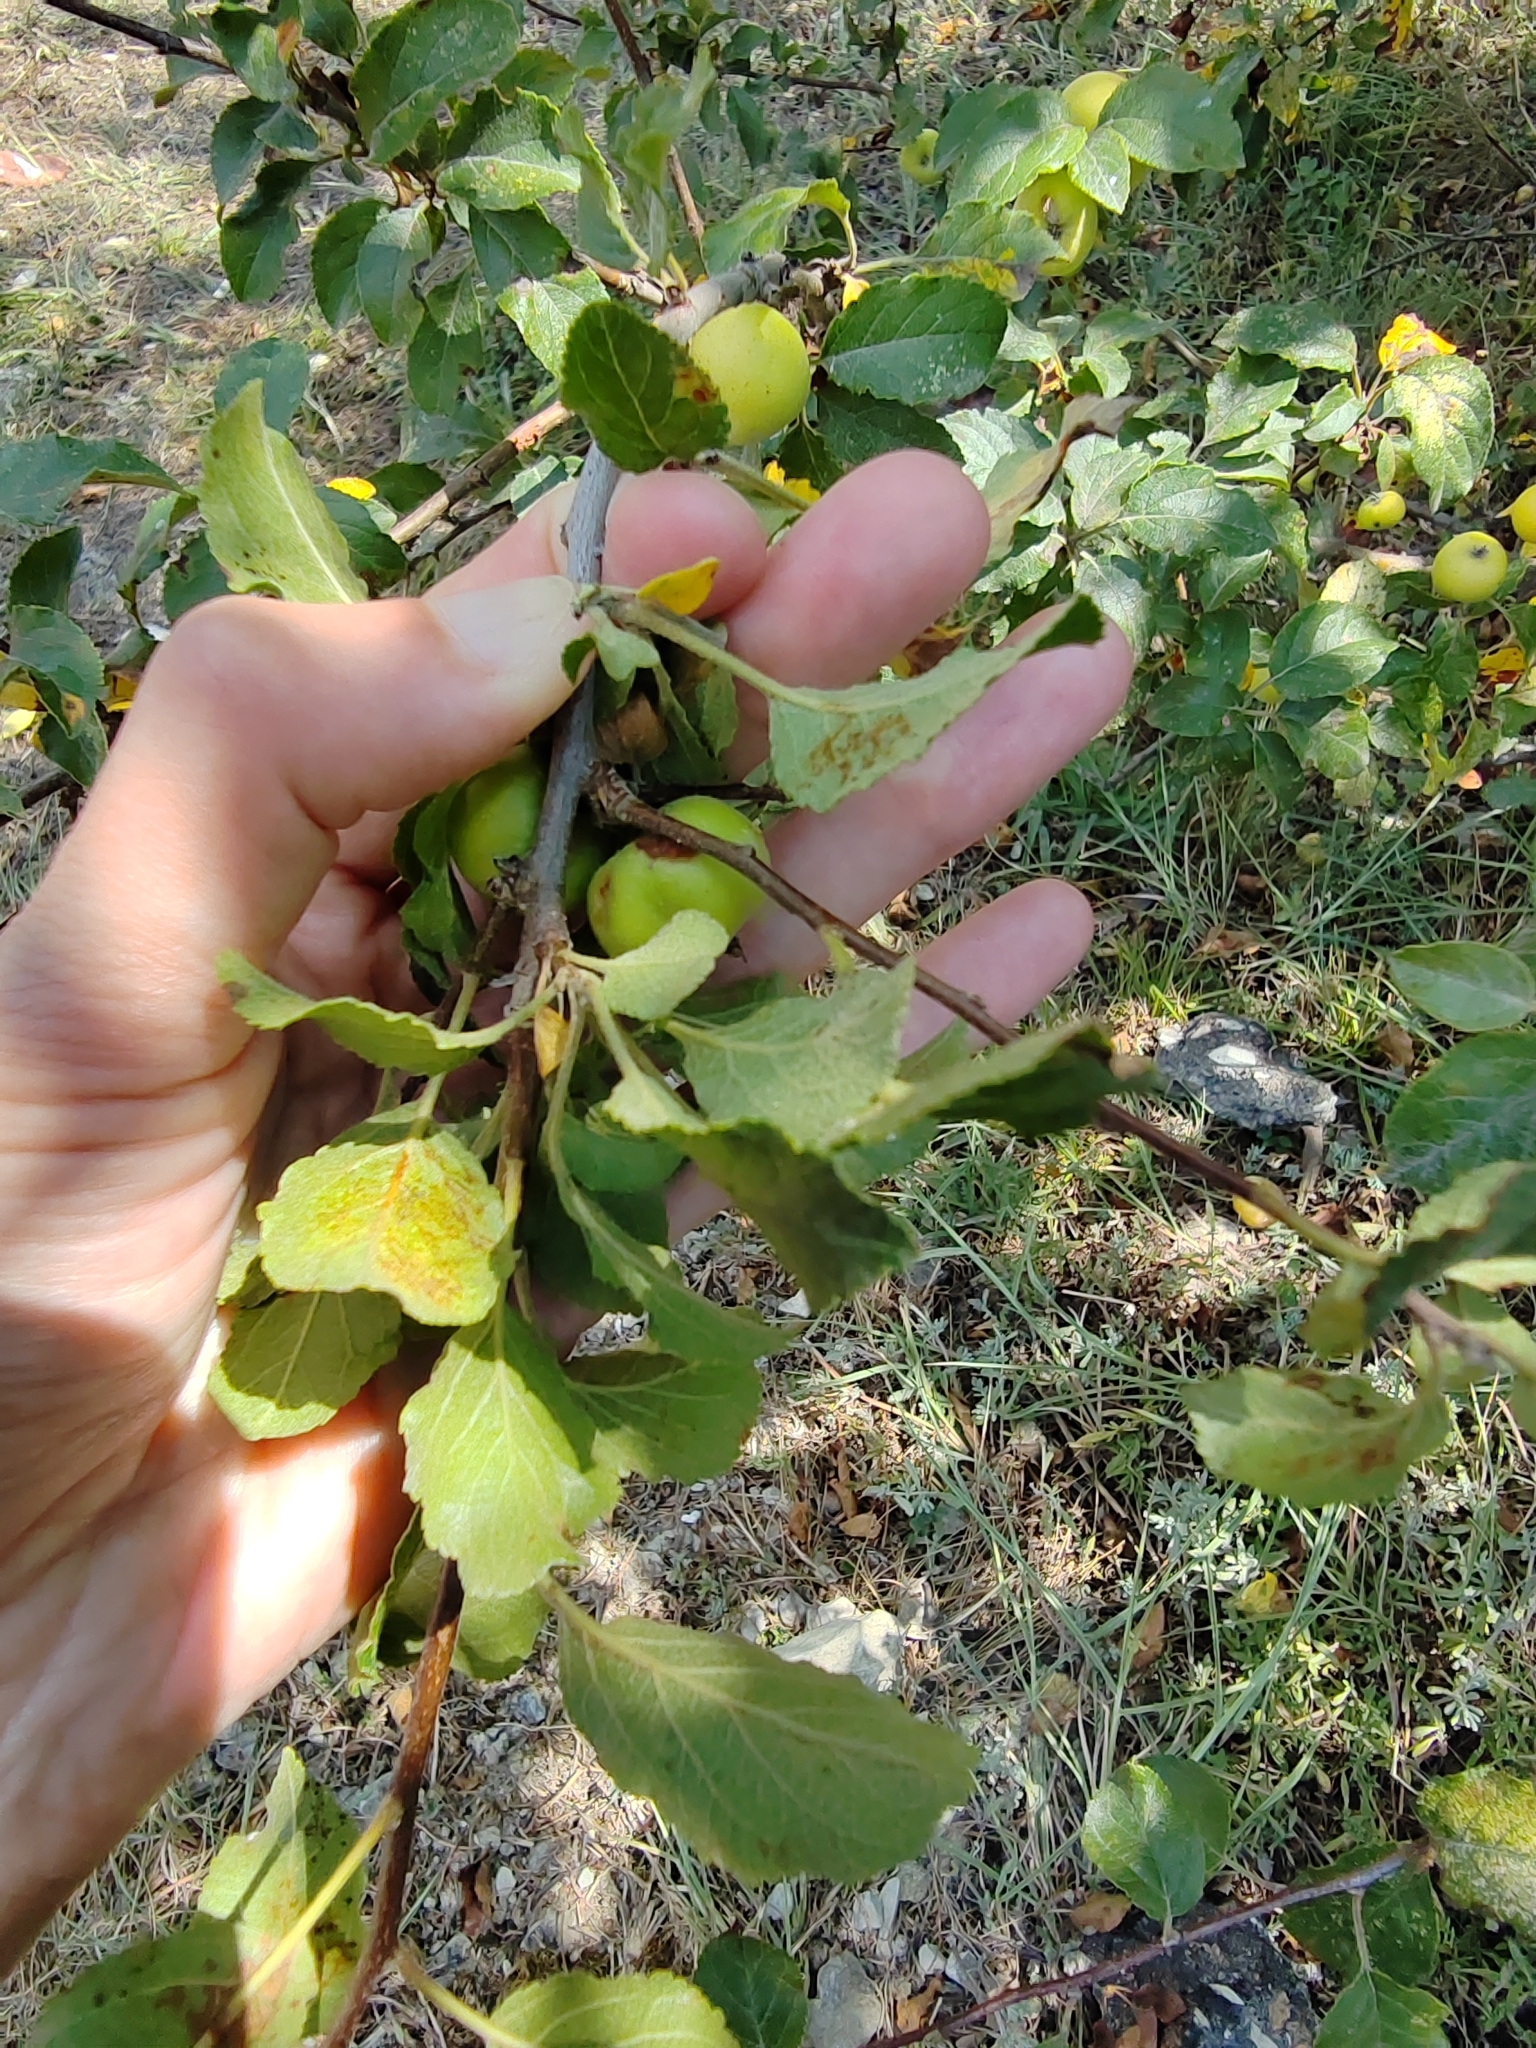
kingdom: Plantae
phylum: Tracheophyta
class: Magnoliopsida
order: Rosales
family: Rosaceae
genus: Malus
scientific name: Malus domestica
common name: Apple
